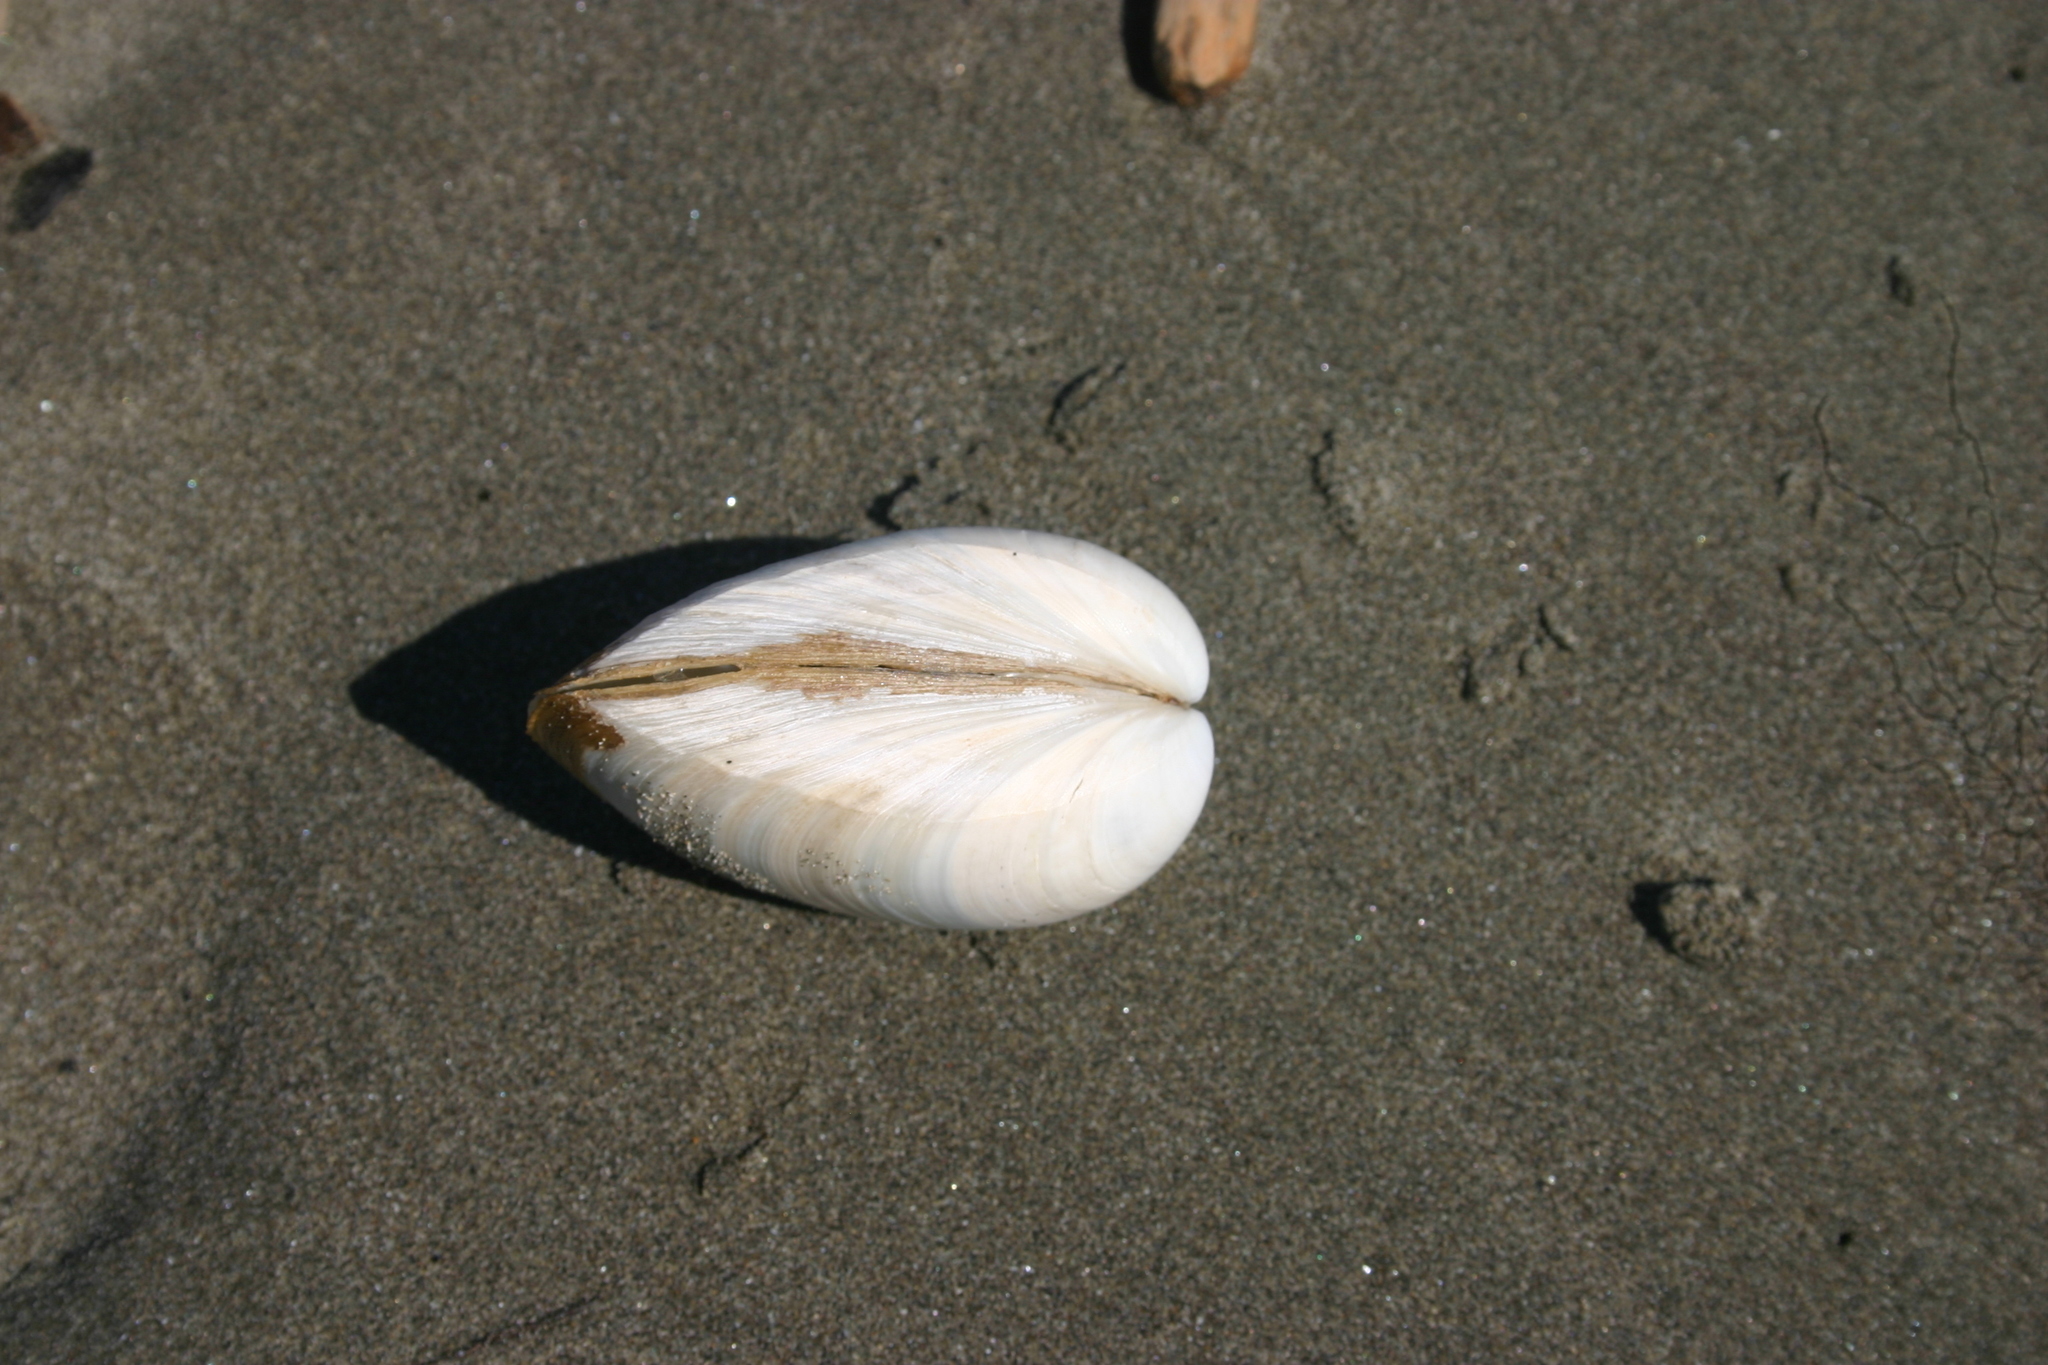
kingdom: Animalia
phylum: Mollusca
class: Bivalvia
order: Venerida
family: Mactridae
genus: Spisula
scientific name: Spisula murchisoni
